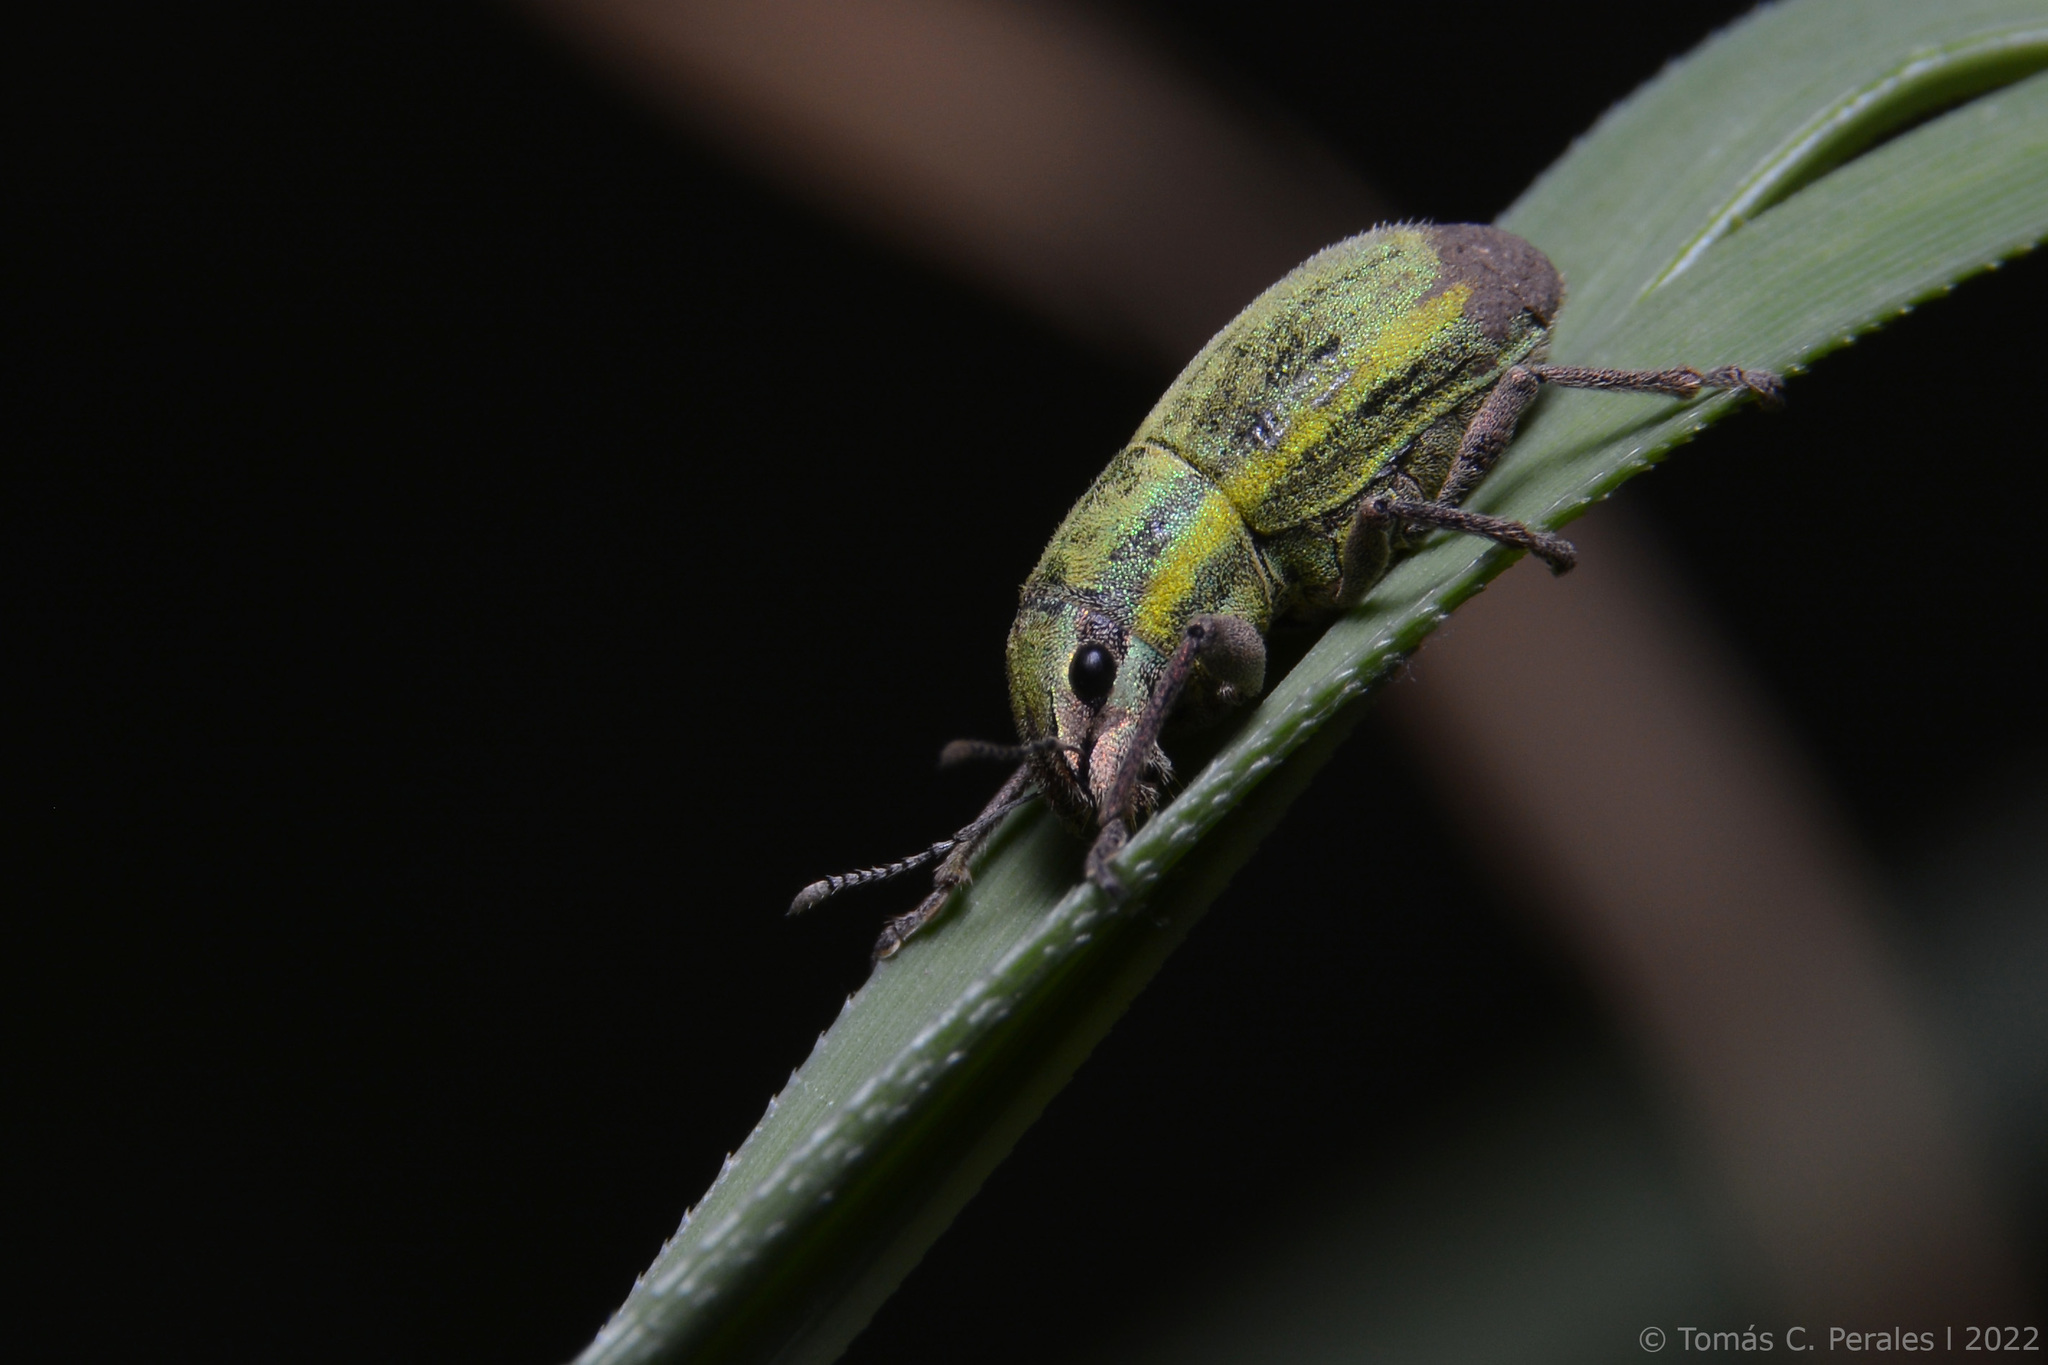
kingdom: Animalia
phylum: Arthropoda
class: Insecta
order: Coleoptera
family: Curculionidae
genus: Pantomorus
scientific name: Pantomorus viridisquamosus
